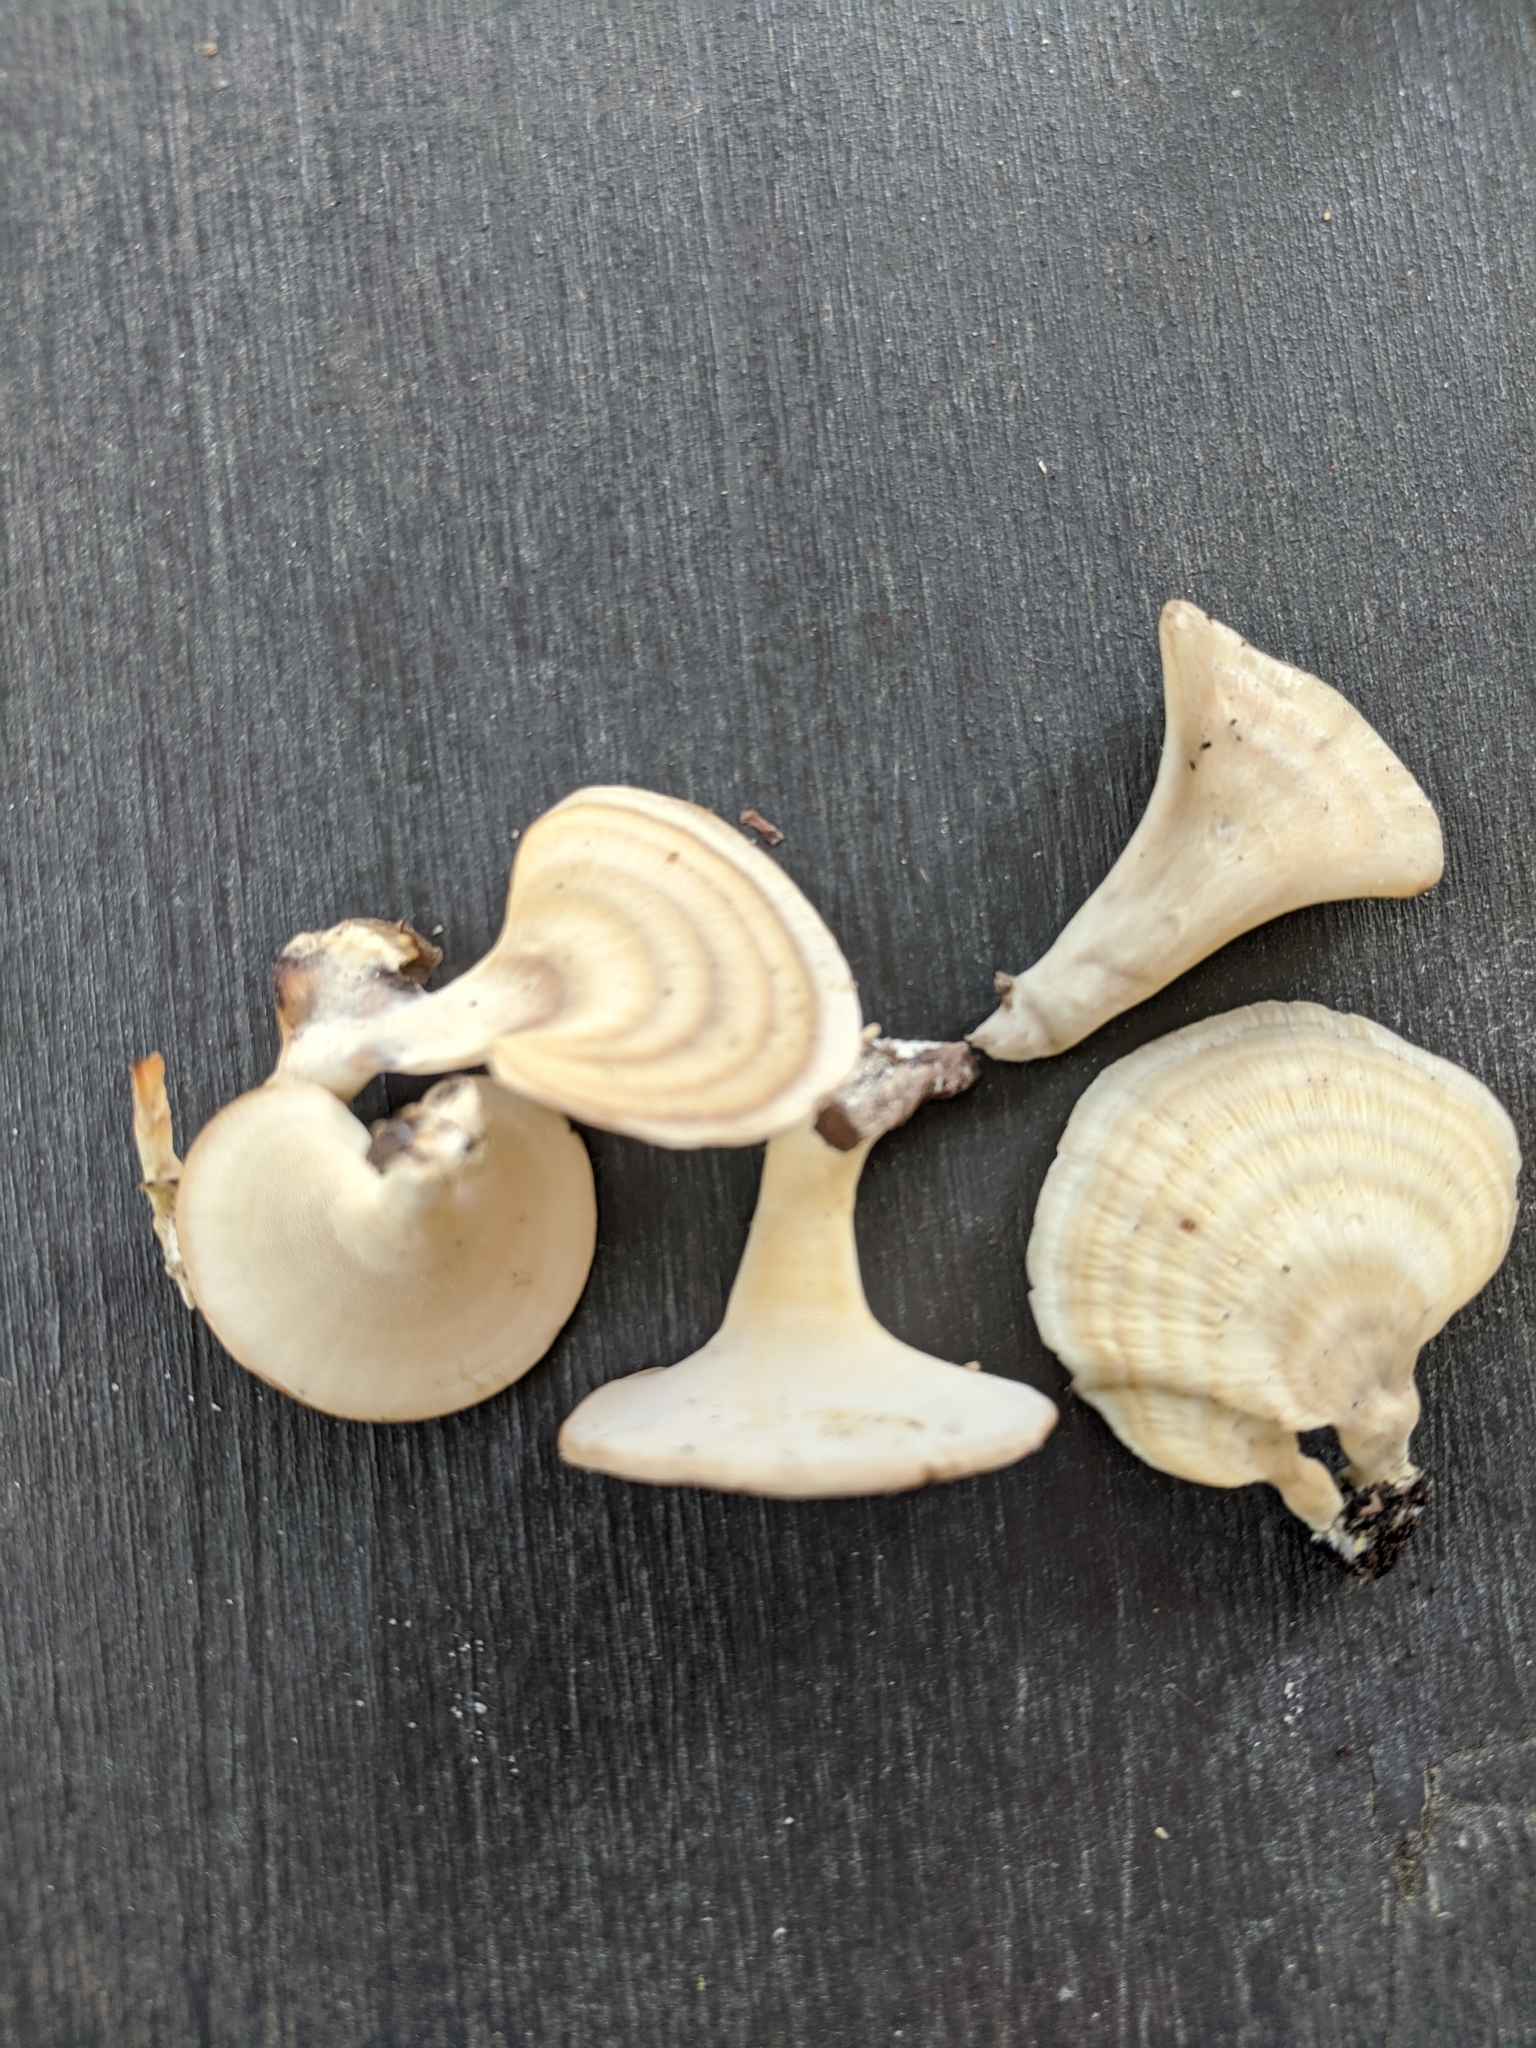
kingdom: Fungi
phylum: Basidiomycota
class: Agaricomycetes
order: Polyporales
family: Polyporaceae
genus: Microporellus
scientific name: Microporellus obovatus
